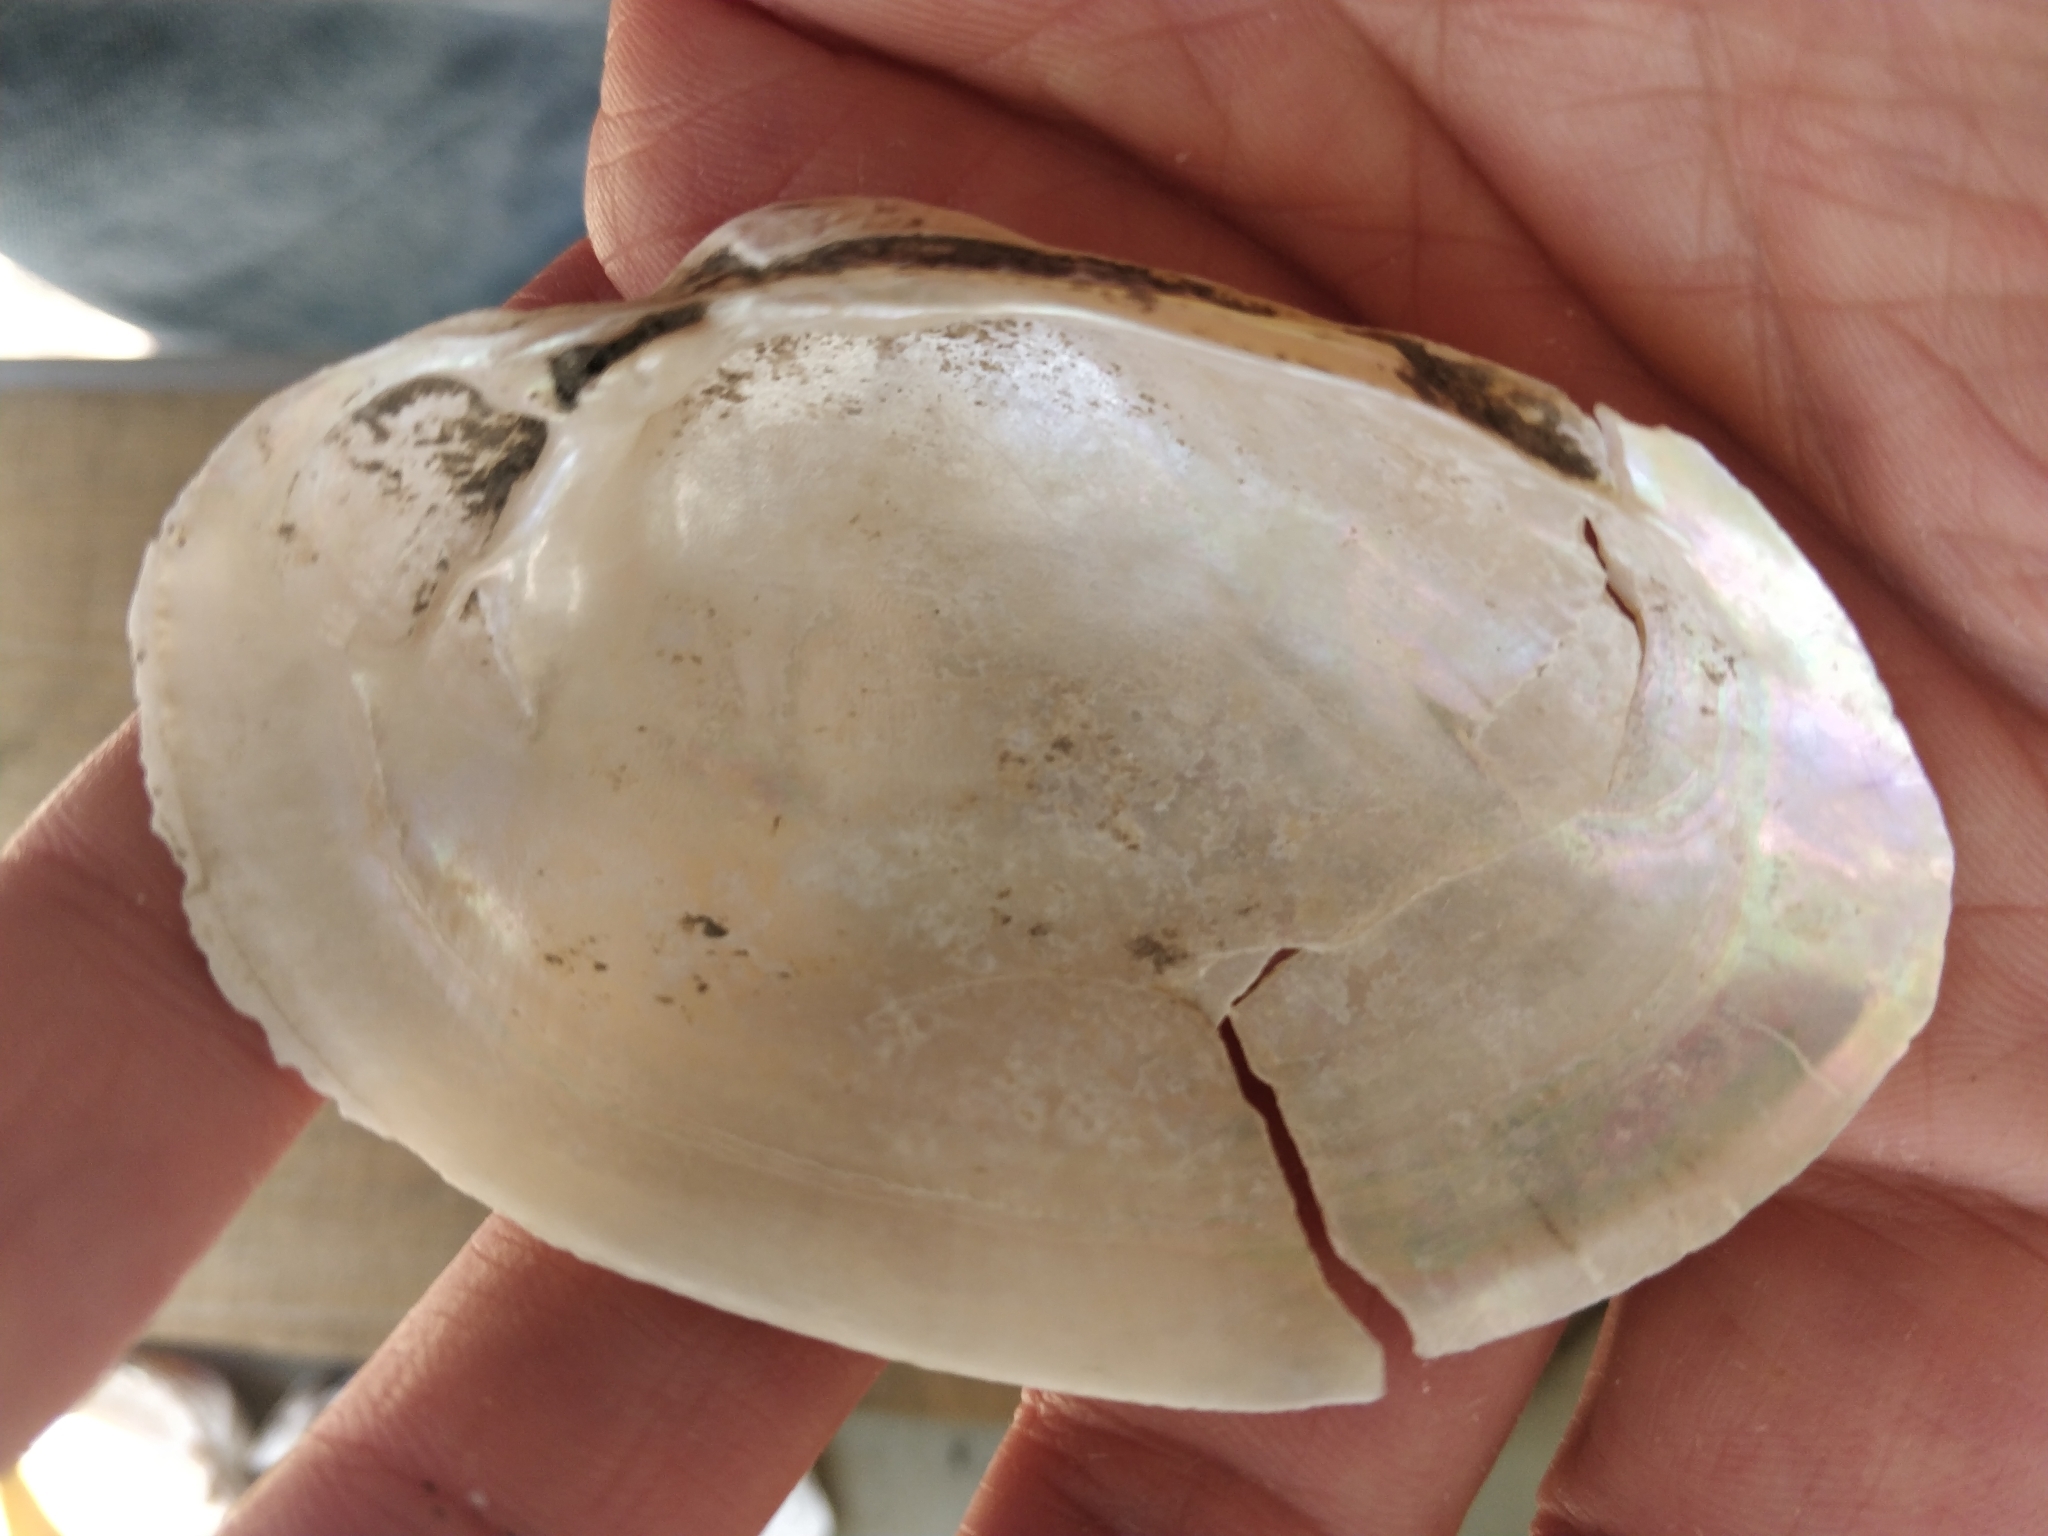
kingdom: Animalia
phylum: Mollusca
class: Bivalvia
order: Unionida
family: Unionidae
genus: Lampsilis
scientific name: Lampsilis cardium
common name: Plain pocketbook
